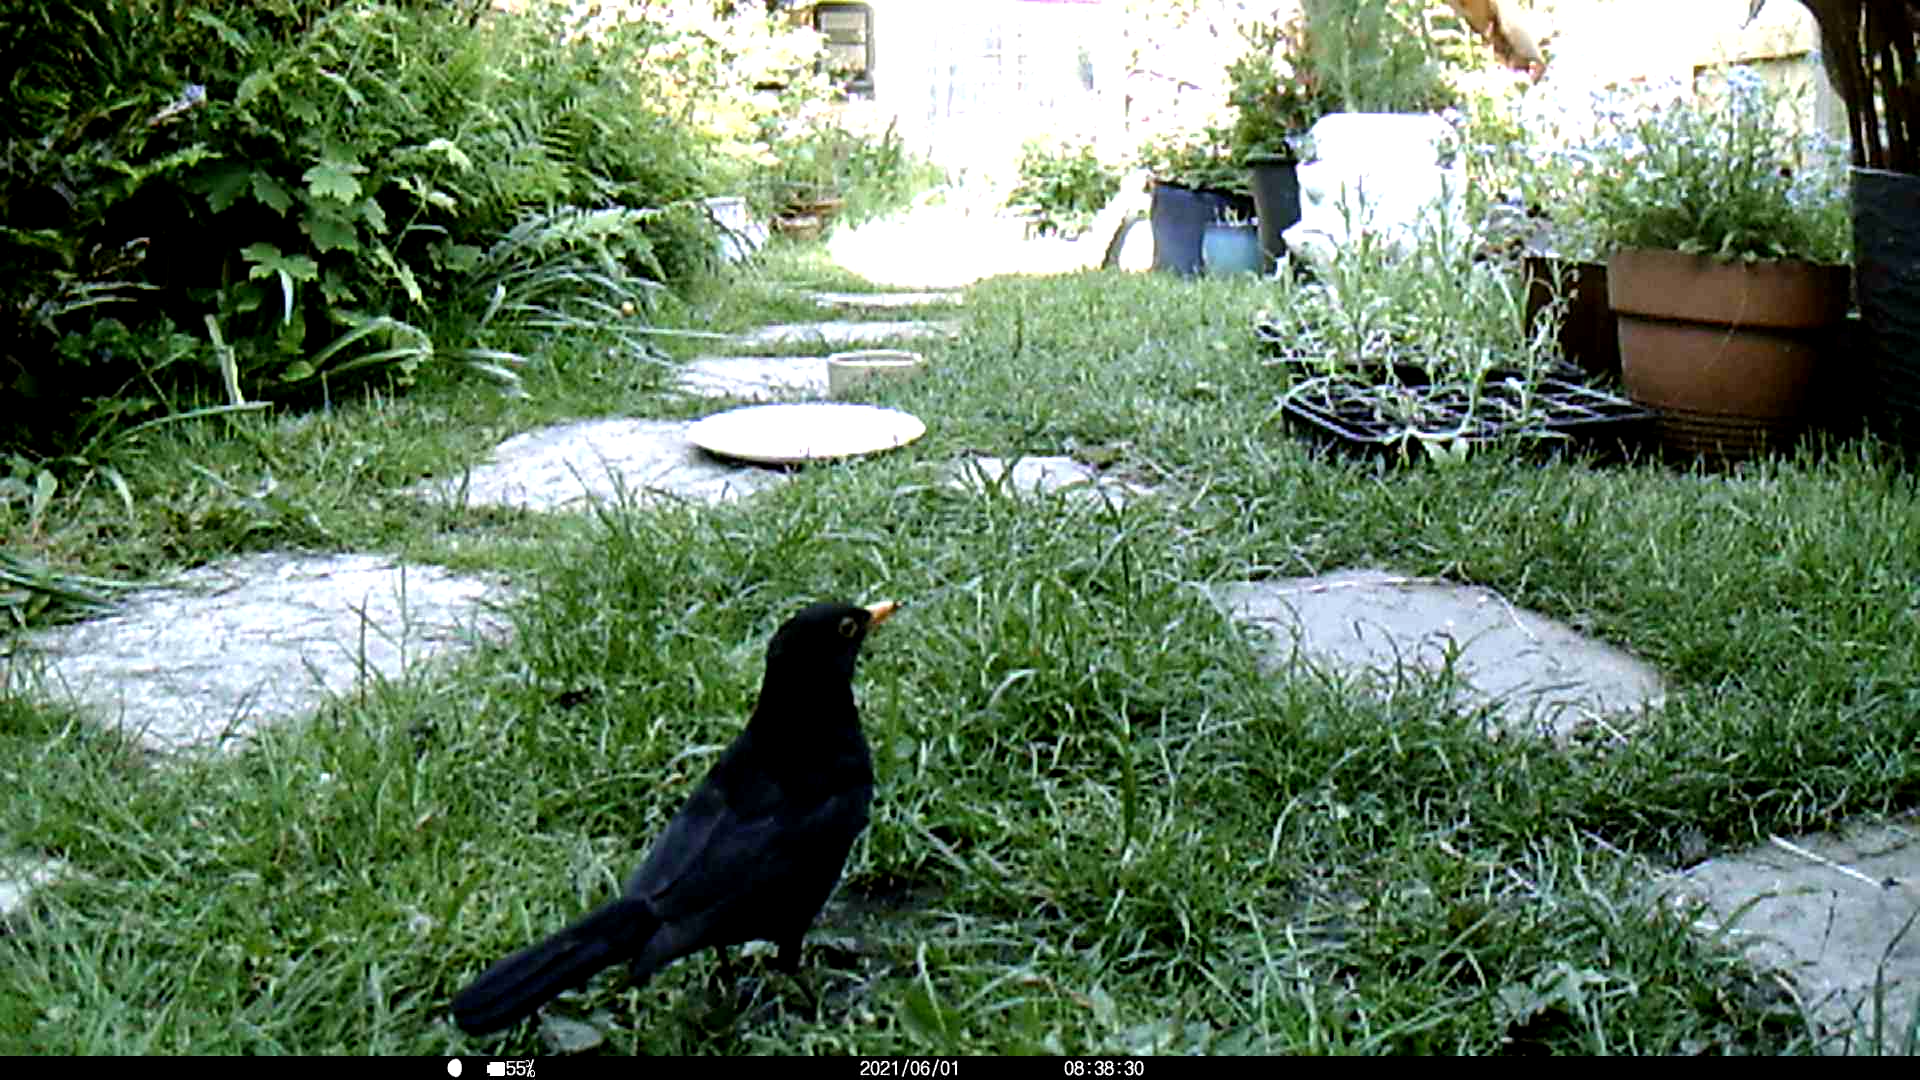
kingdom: Animalia
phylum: Chordata
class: Aves
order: Passeriformes
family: Turdidae
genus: Turdus
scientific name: Turdus merula
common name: Common blackbird
